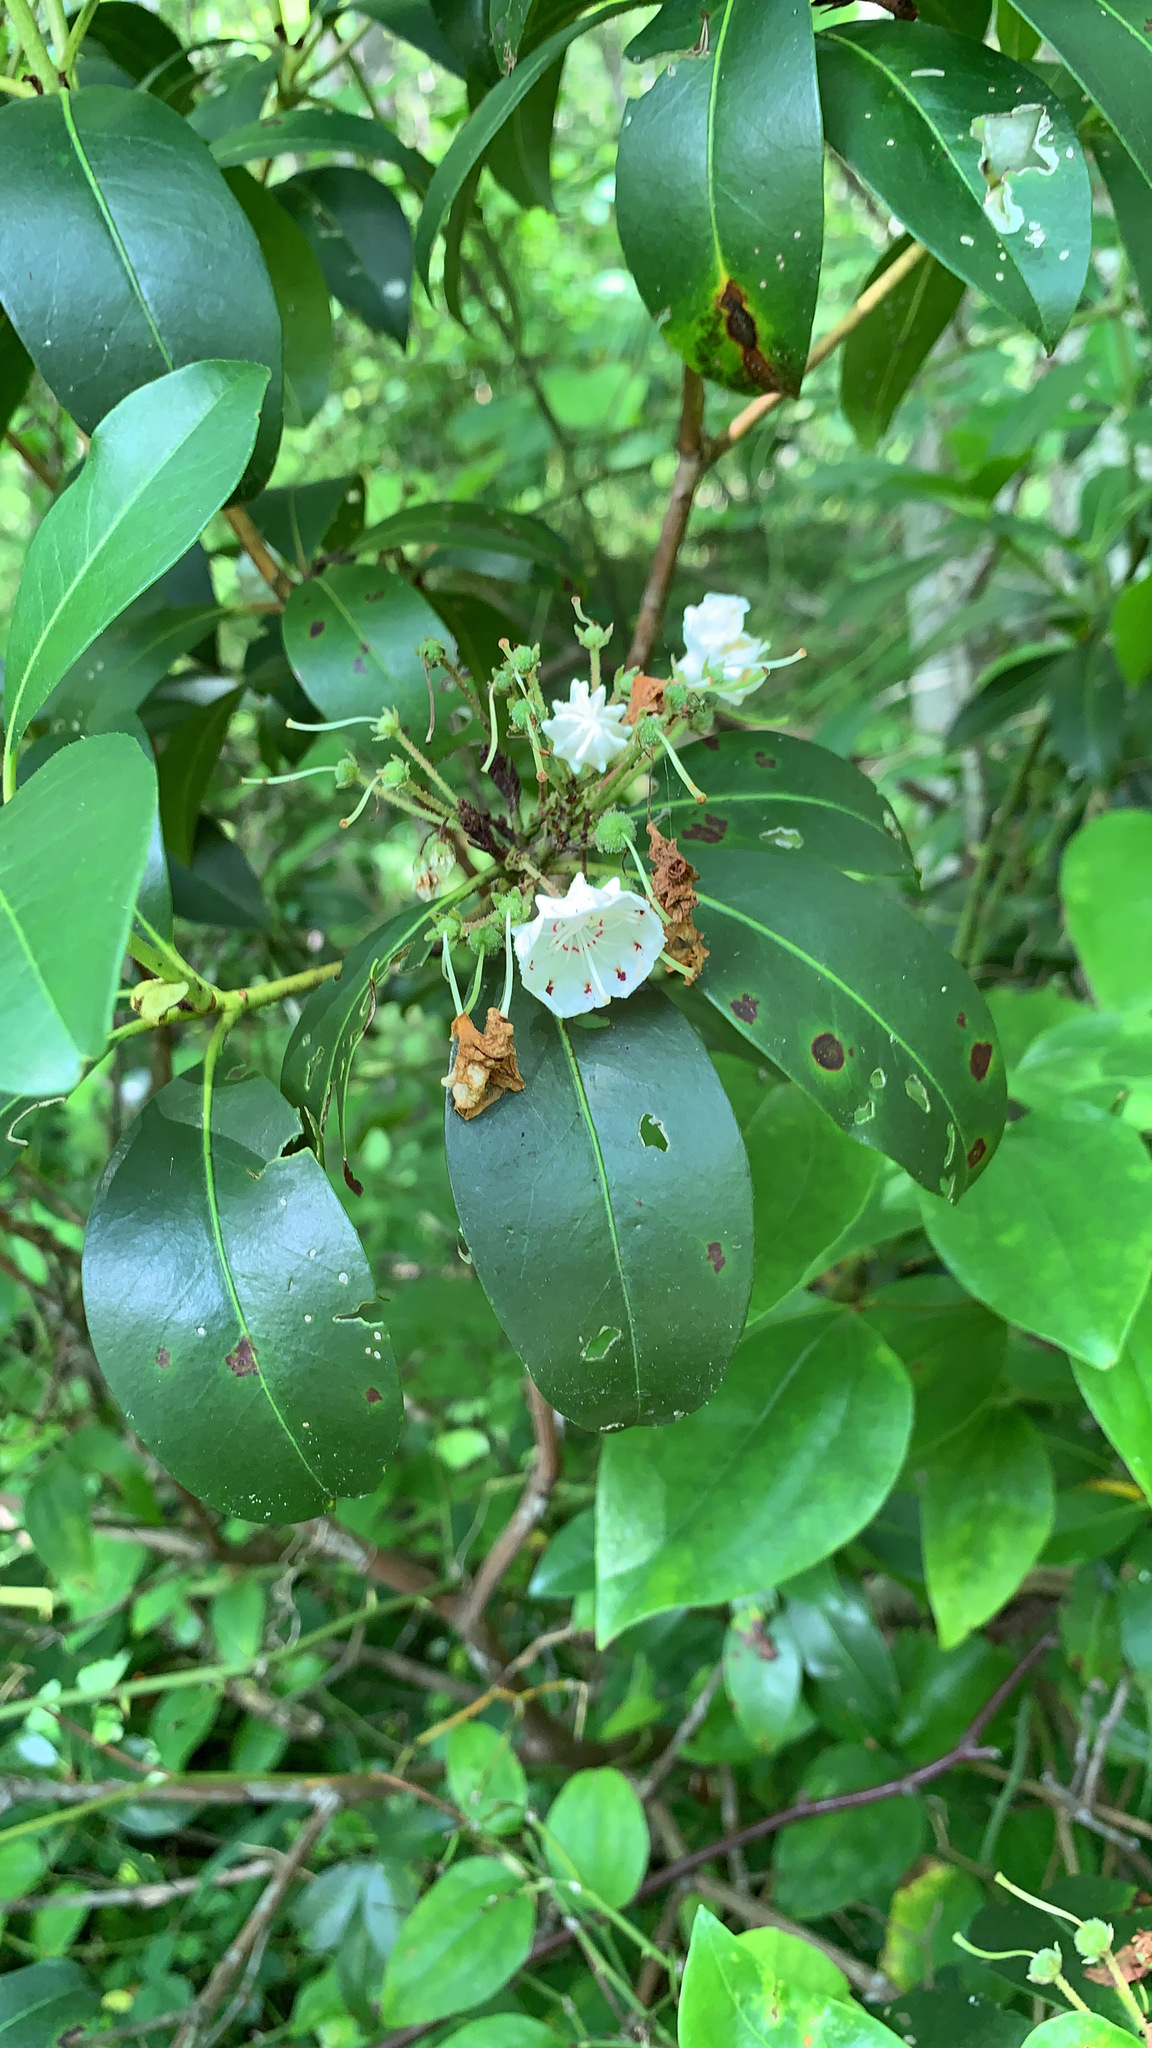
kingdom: Plantae
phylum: Tracheophyta
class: Magnoliopsida
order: Ericales
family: Ericaceae
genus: Kalmia
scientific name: Kalmia latifolia
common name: Mountain-laurel
